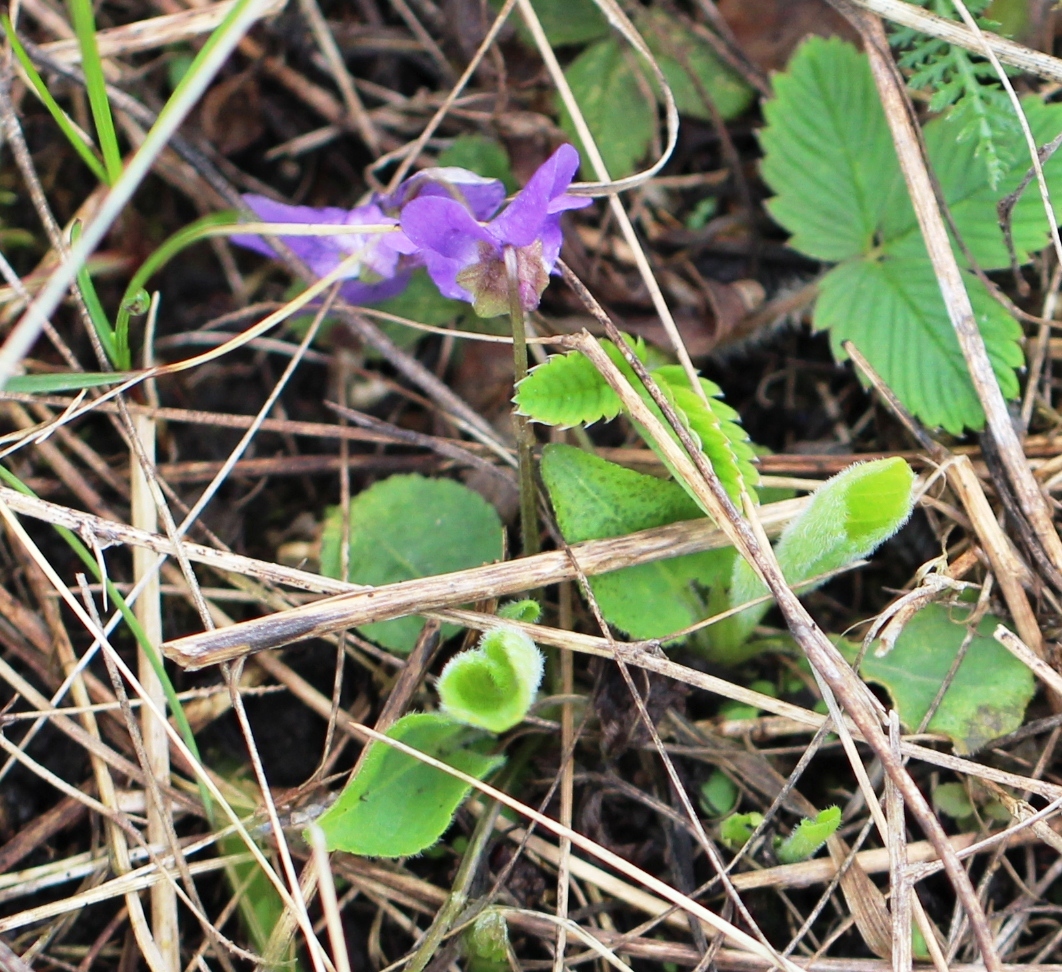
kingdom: Plantae
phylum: Tracheophyta
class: Magnoliopsida
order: Malpighiales
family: Violaceae
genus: Viola
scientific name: Viola hirta
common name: Hairy violet
